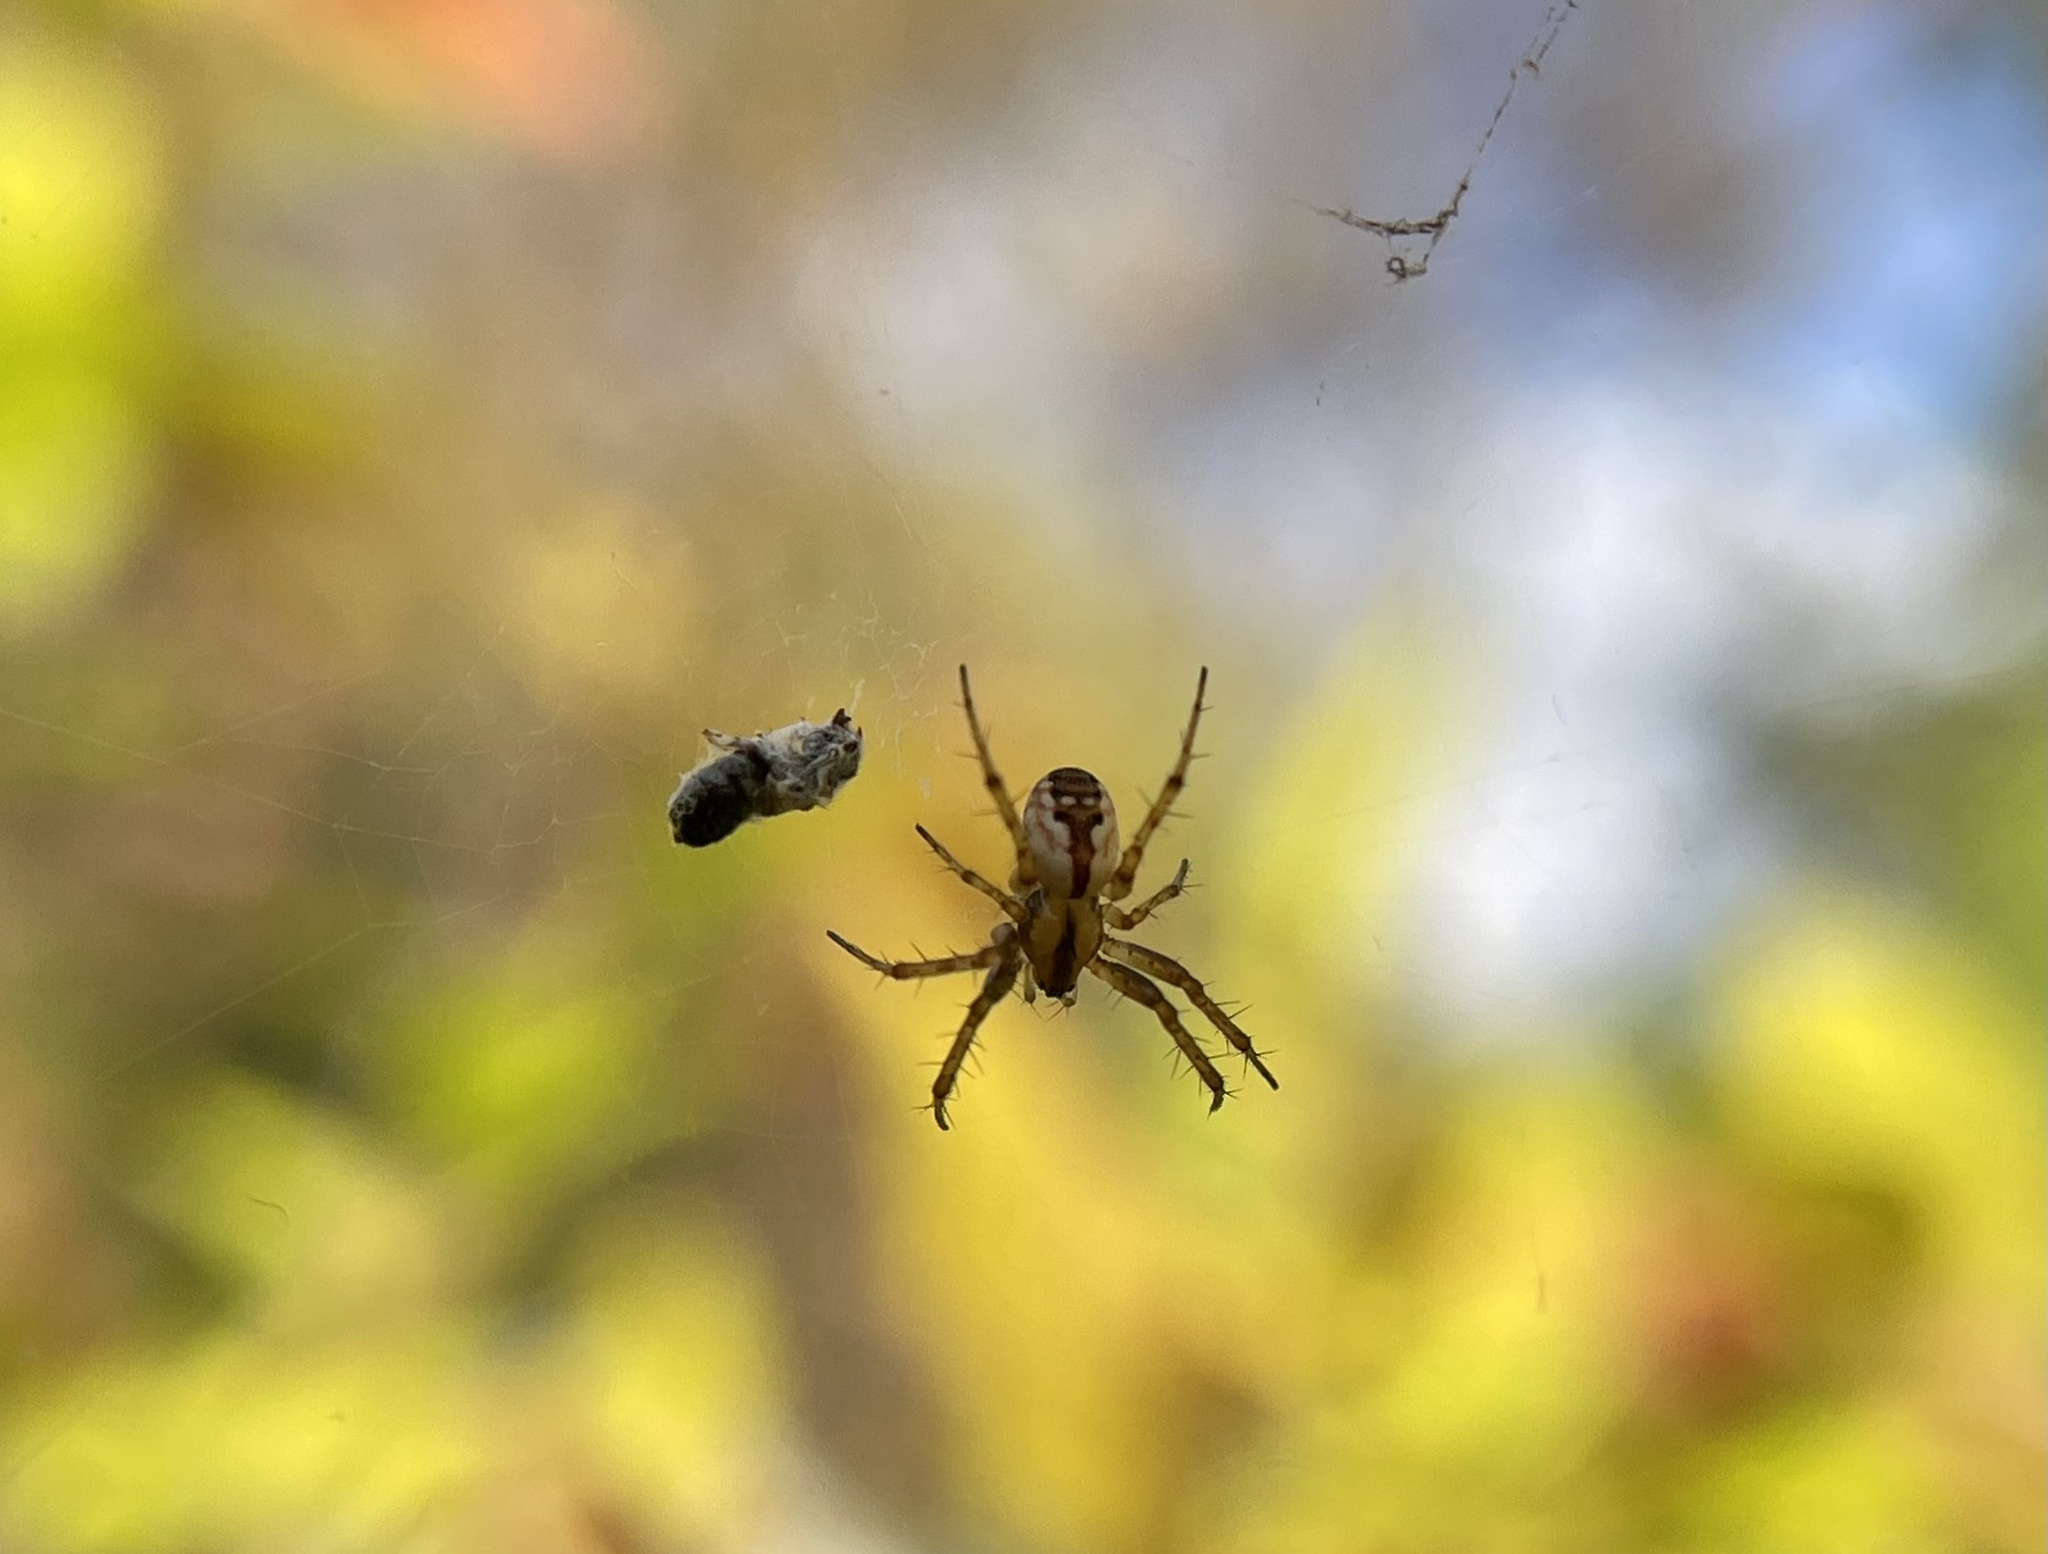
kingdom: Animalia
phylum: Arthropoda
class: Arachnida
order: Araneae
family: Araneidae
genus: Mangora
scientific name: Mangora placida
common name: Tuft-legged orbweaver
